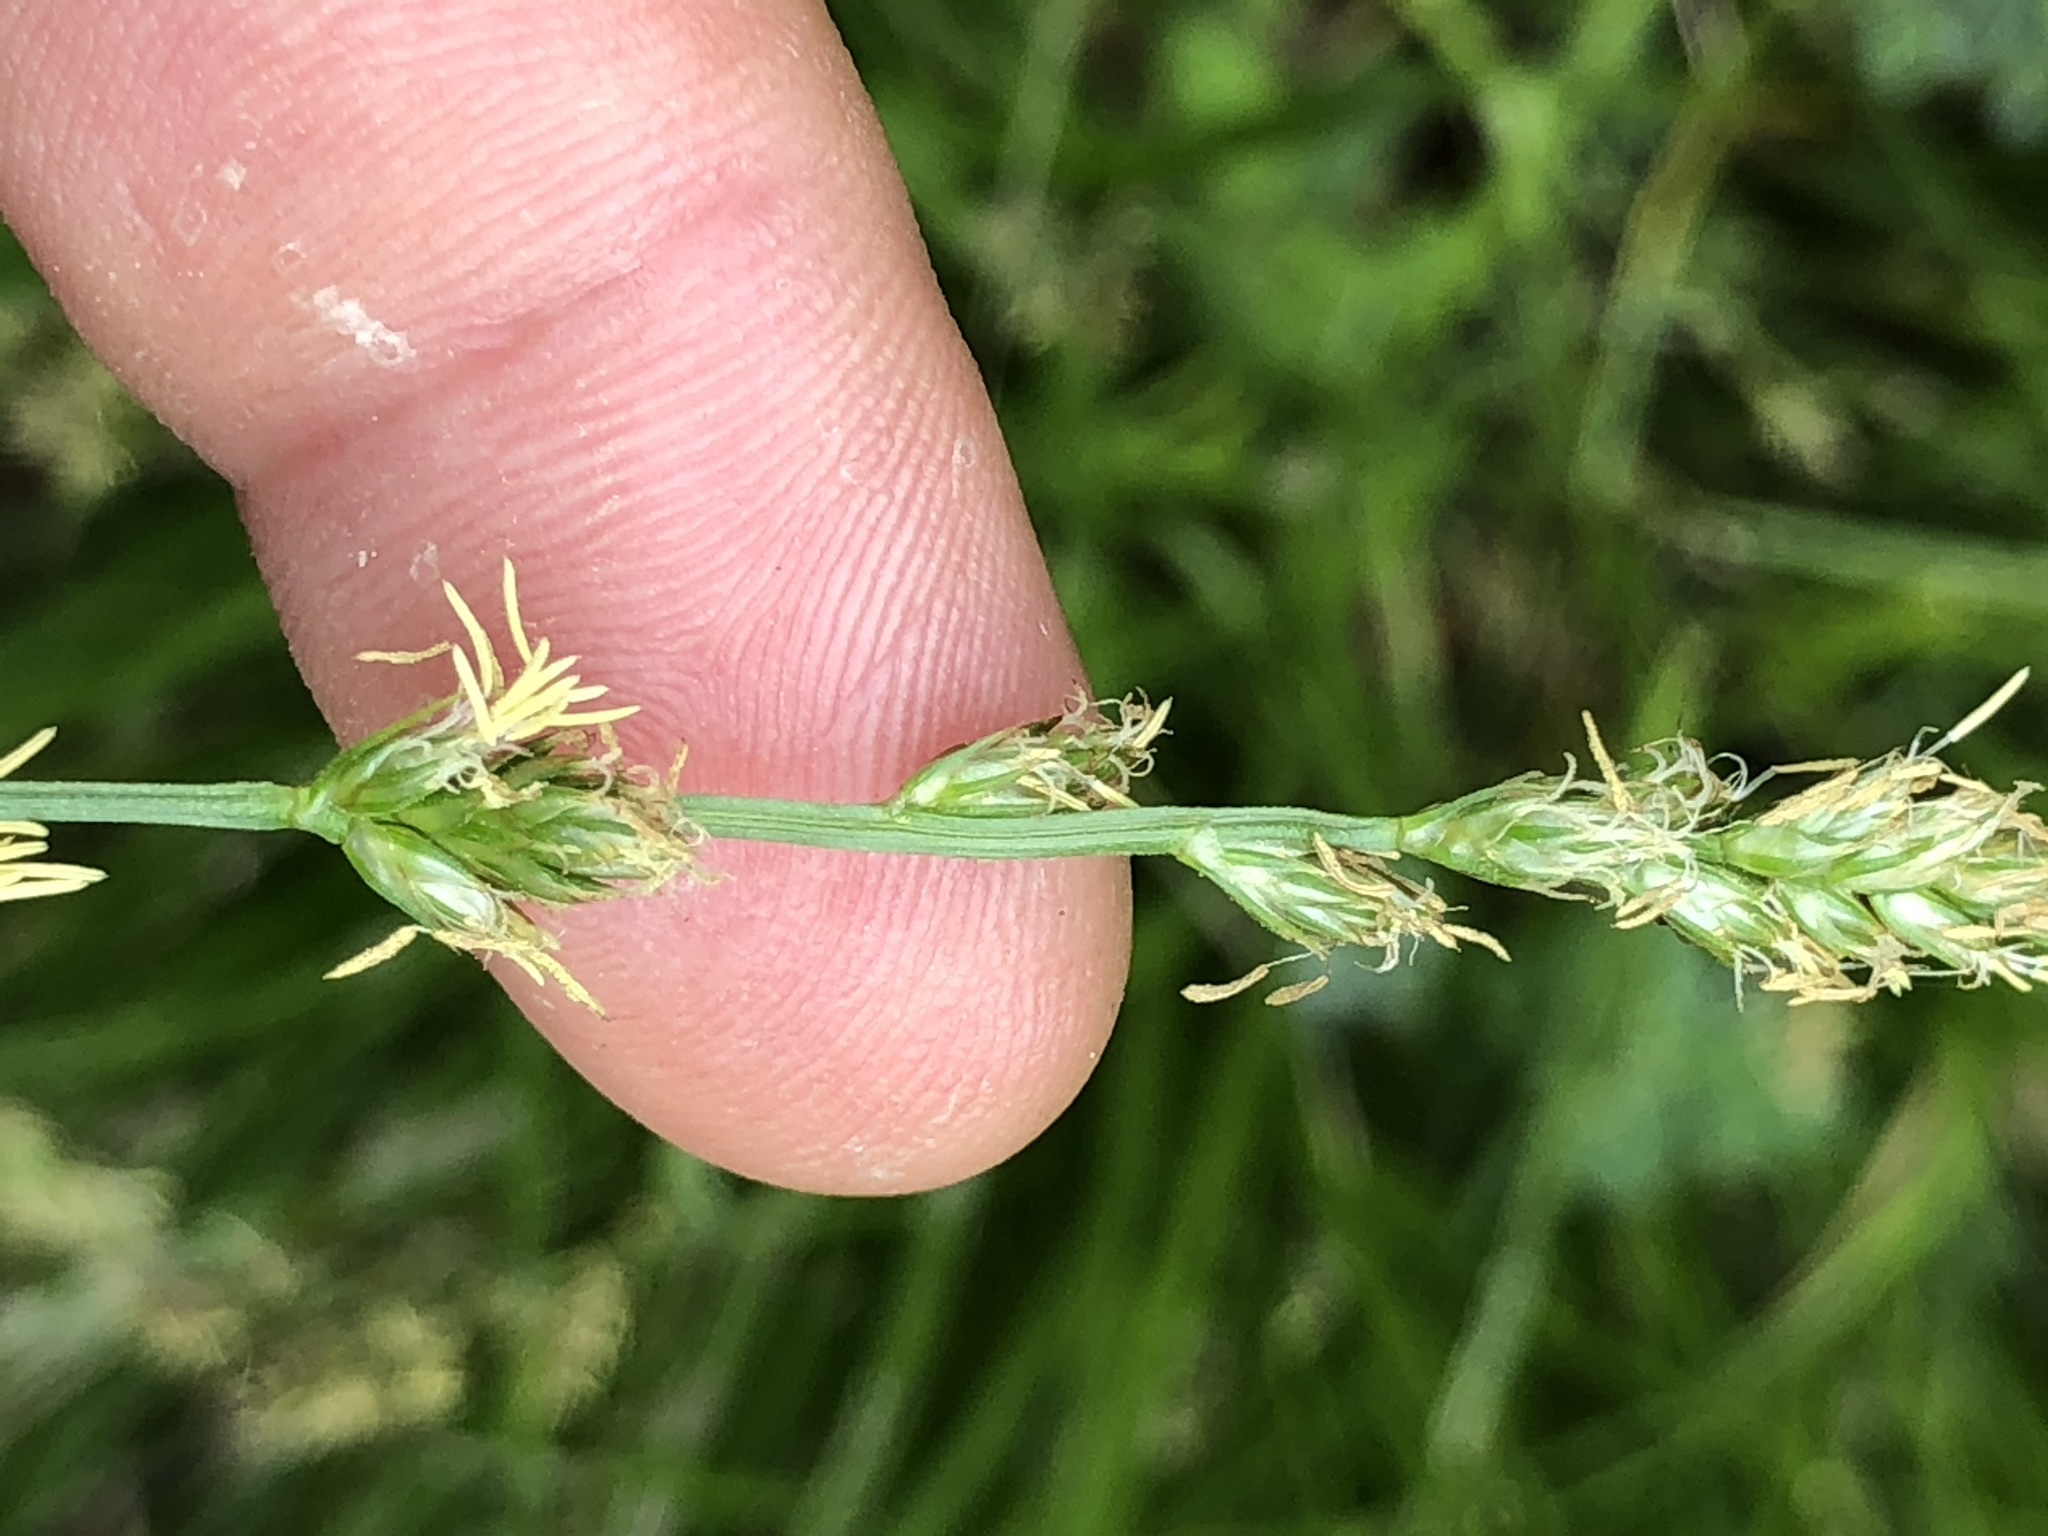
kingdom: Plantae
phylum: Tracheophyta
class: Liliopsida
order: Poales
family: Cyperaceae
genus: Carex
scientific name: Carex leersii
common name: Leers' sedge
